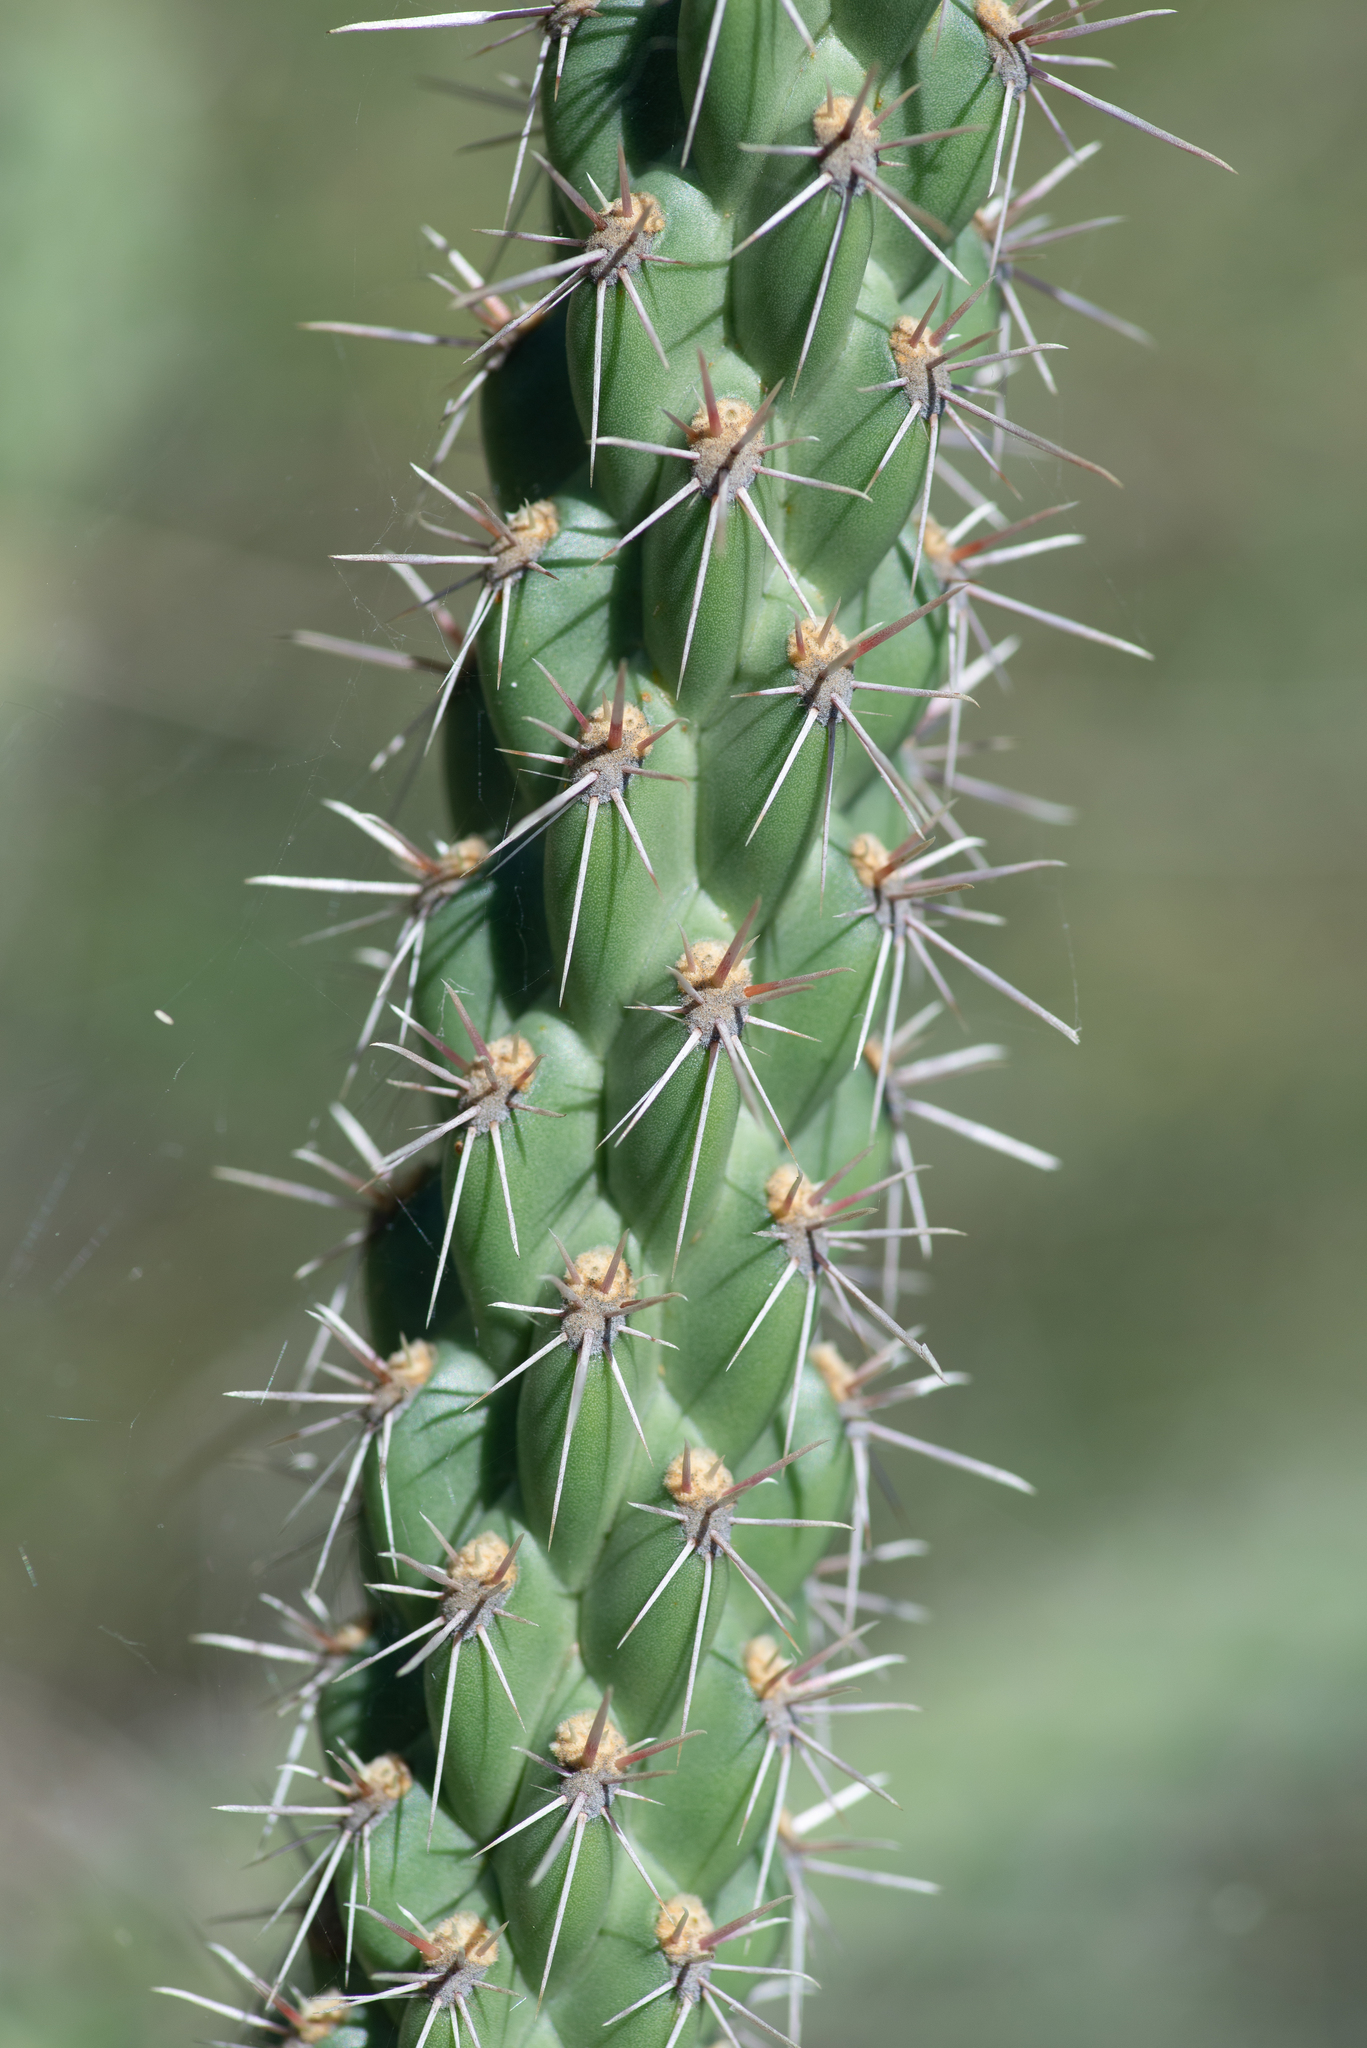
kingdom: Plantae
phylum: Tracheophyta
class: Magnoliopsida
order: Caryophyllales
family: Cactaceae
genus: Cylindropuntia
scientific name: Cylindropuntia imbricata
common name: Candelabrum cactus
